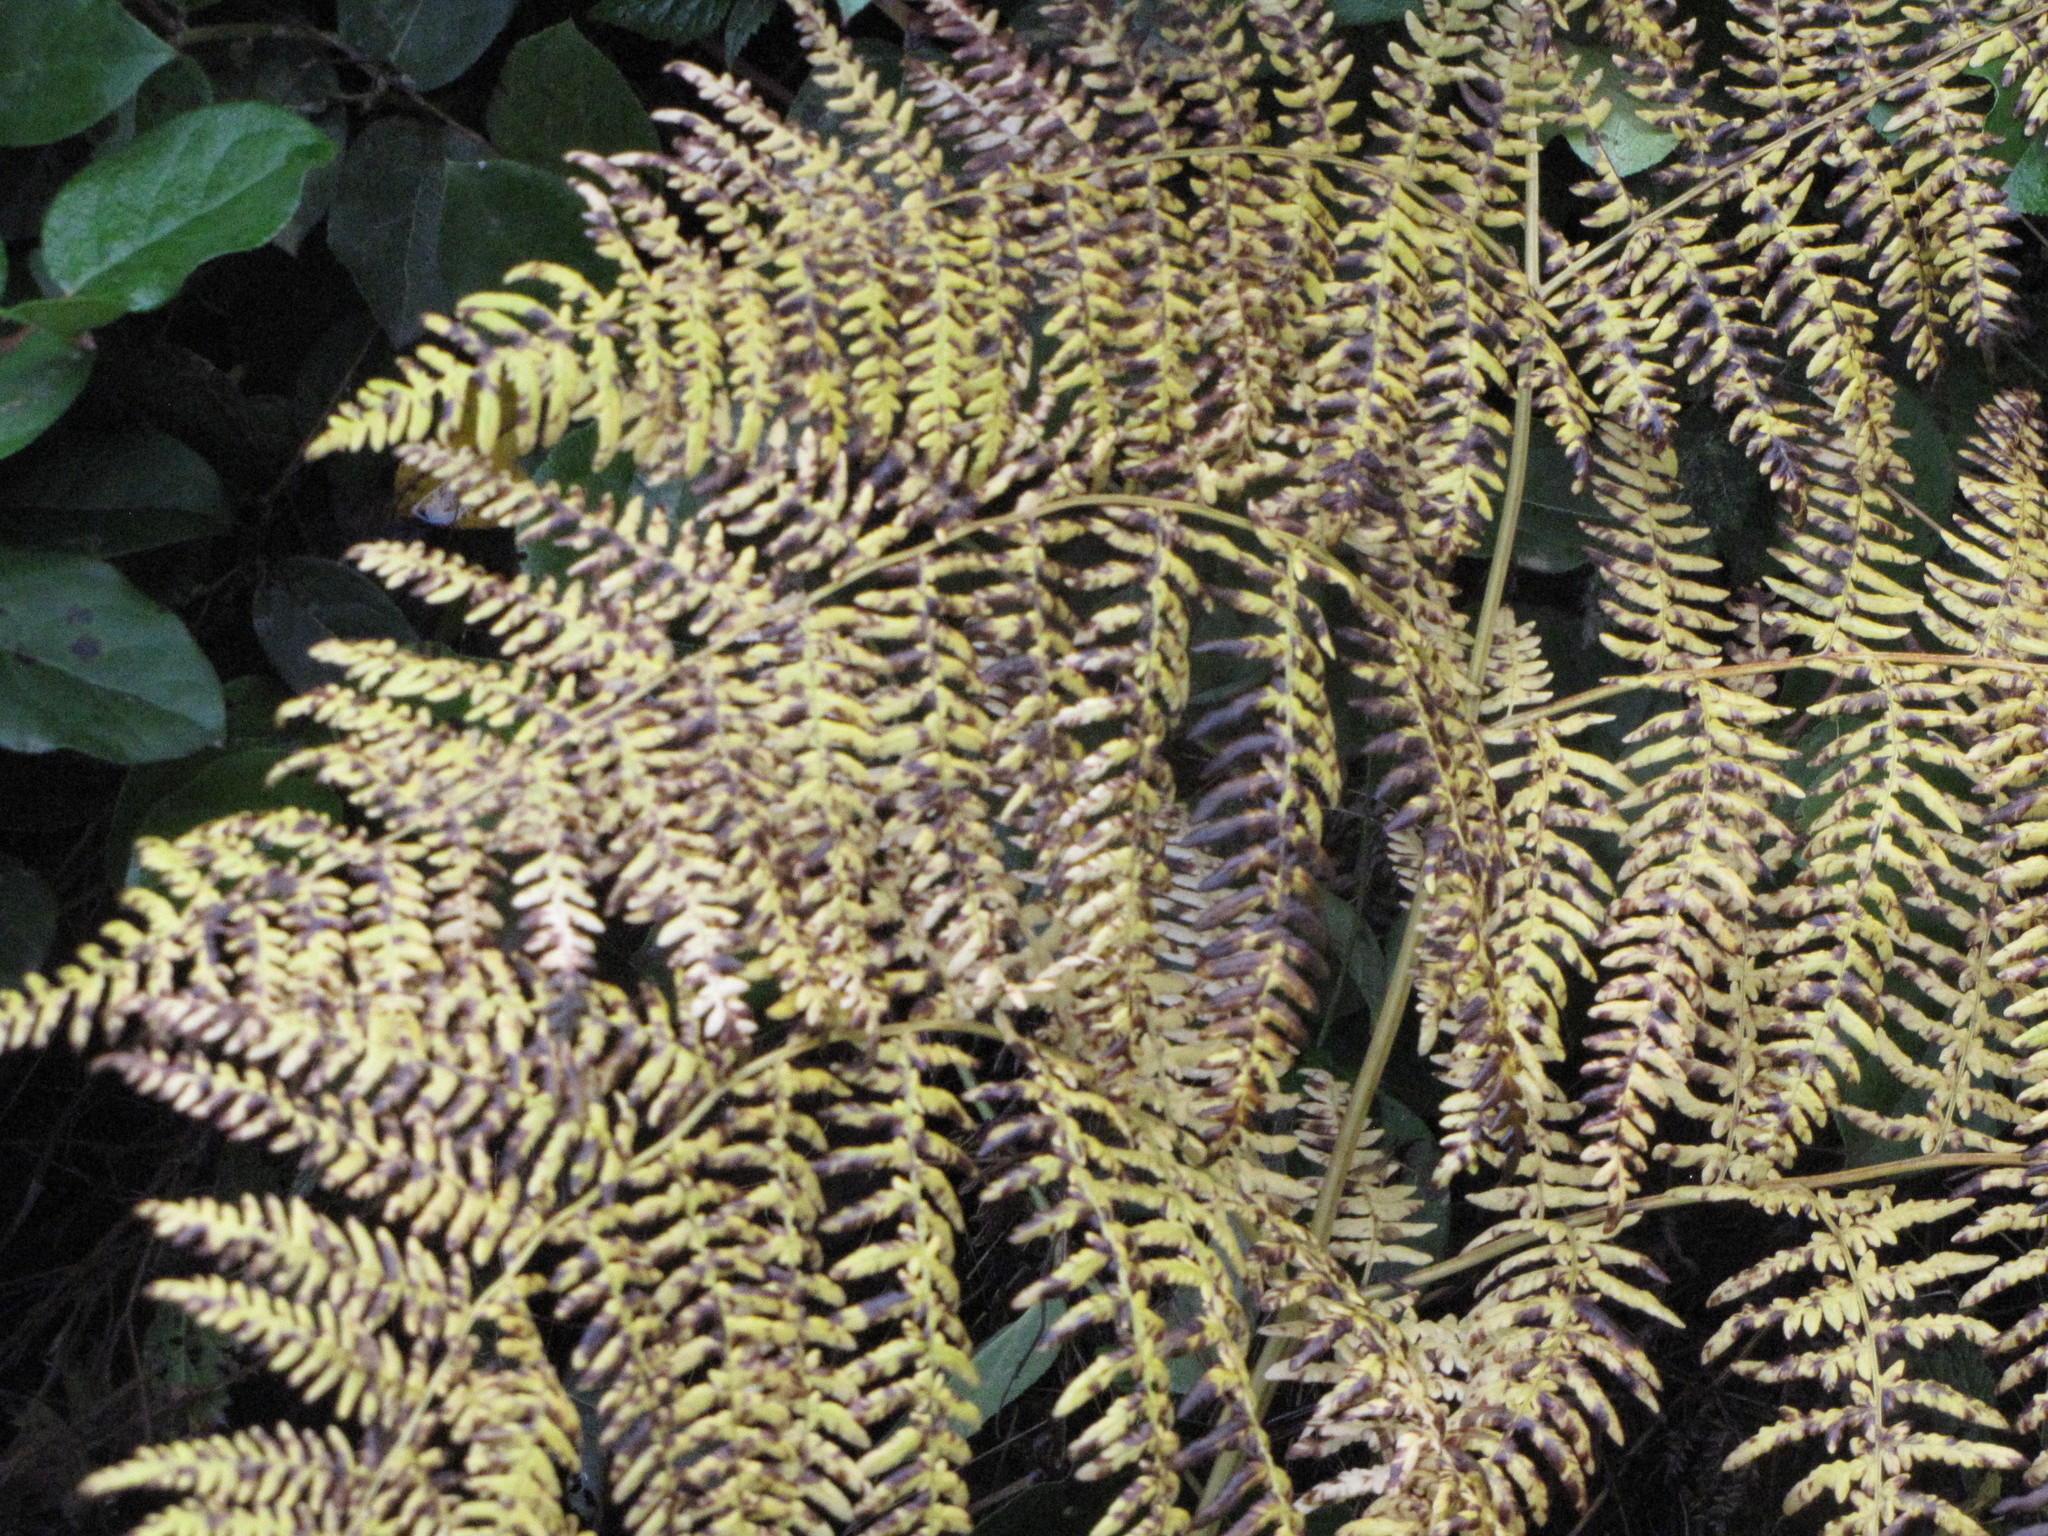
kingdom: Plantae
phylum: Tracheophyta
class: Polypodiopsida
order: Polypodiales
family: Dennstaedtiaceae
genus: Pteridium
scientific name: Pteridium aquilinum
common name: Bracken
